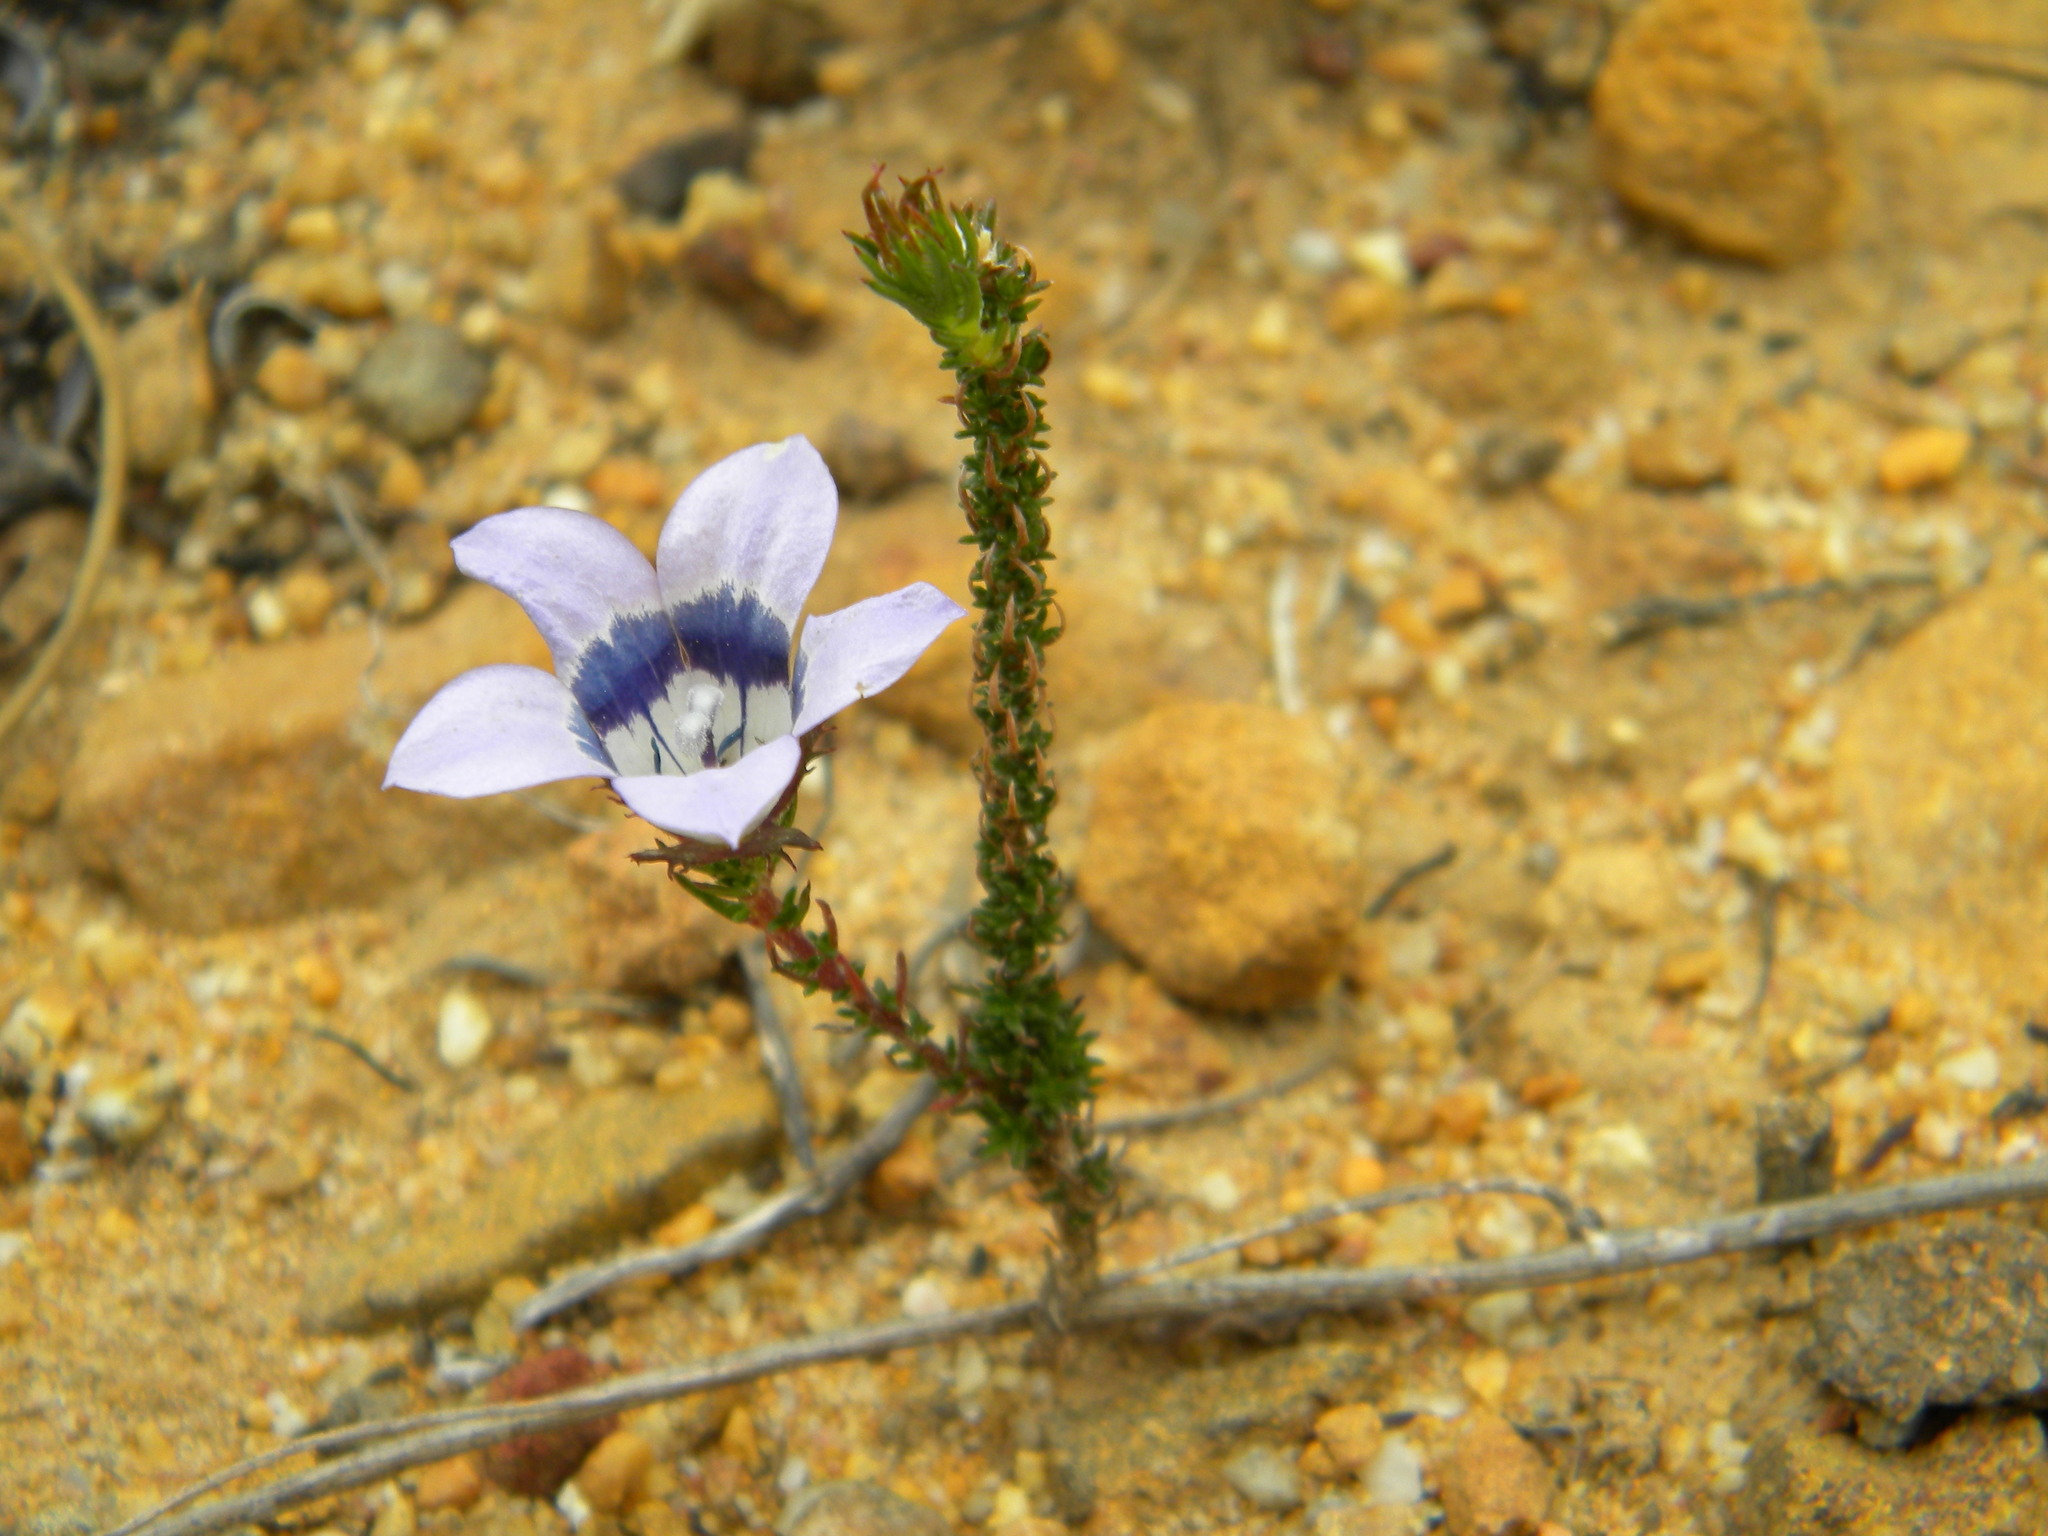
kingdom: Plantae
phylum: Tracheophyta
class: Magnoliopsida
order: Asterales
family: Campanulaceae
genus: Roella
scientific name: Roella ciliata
